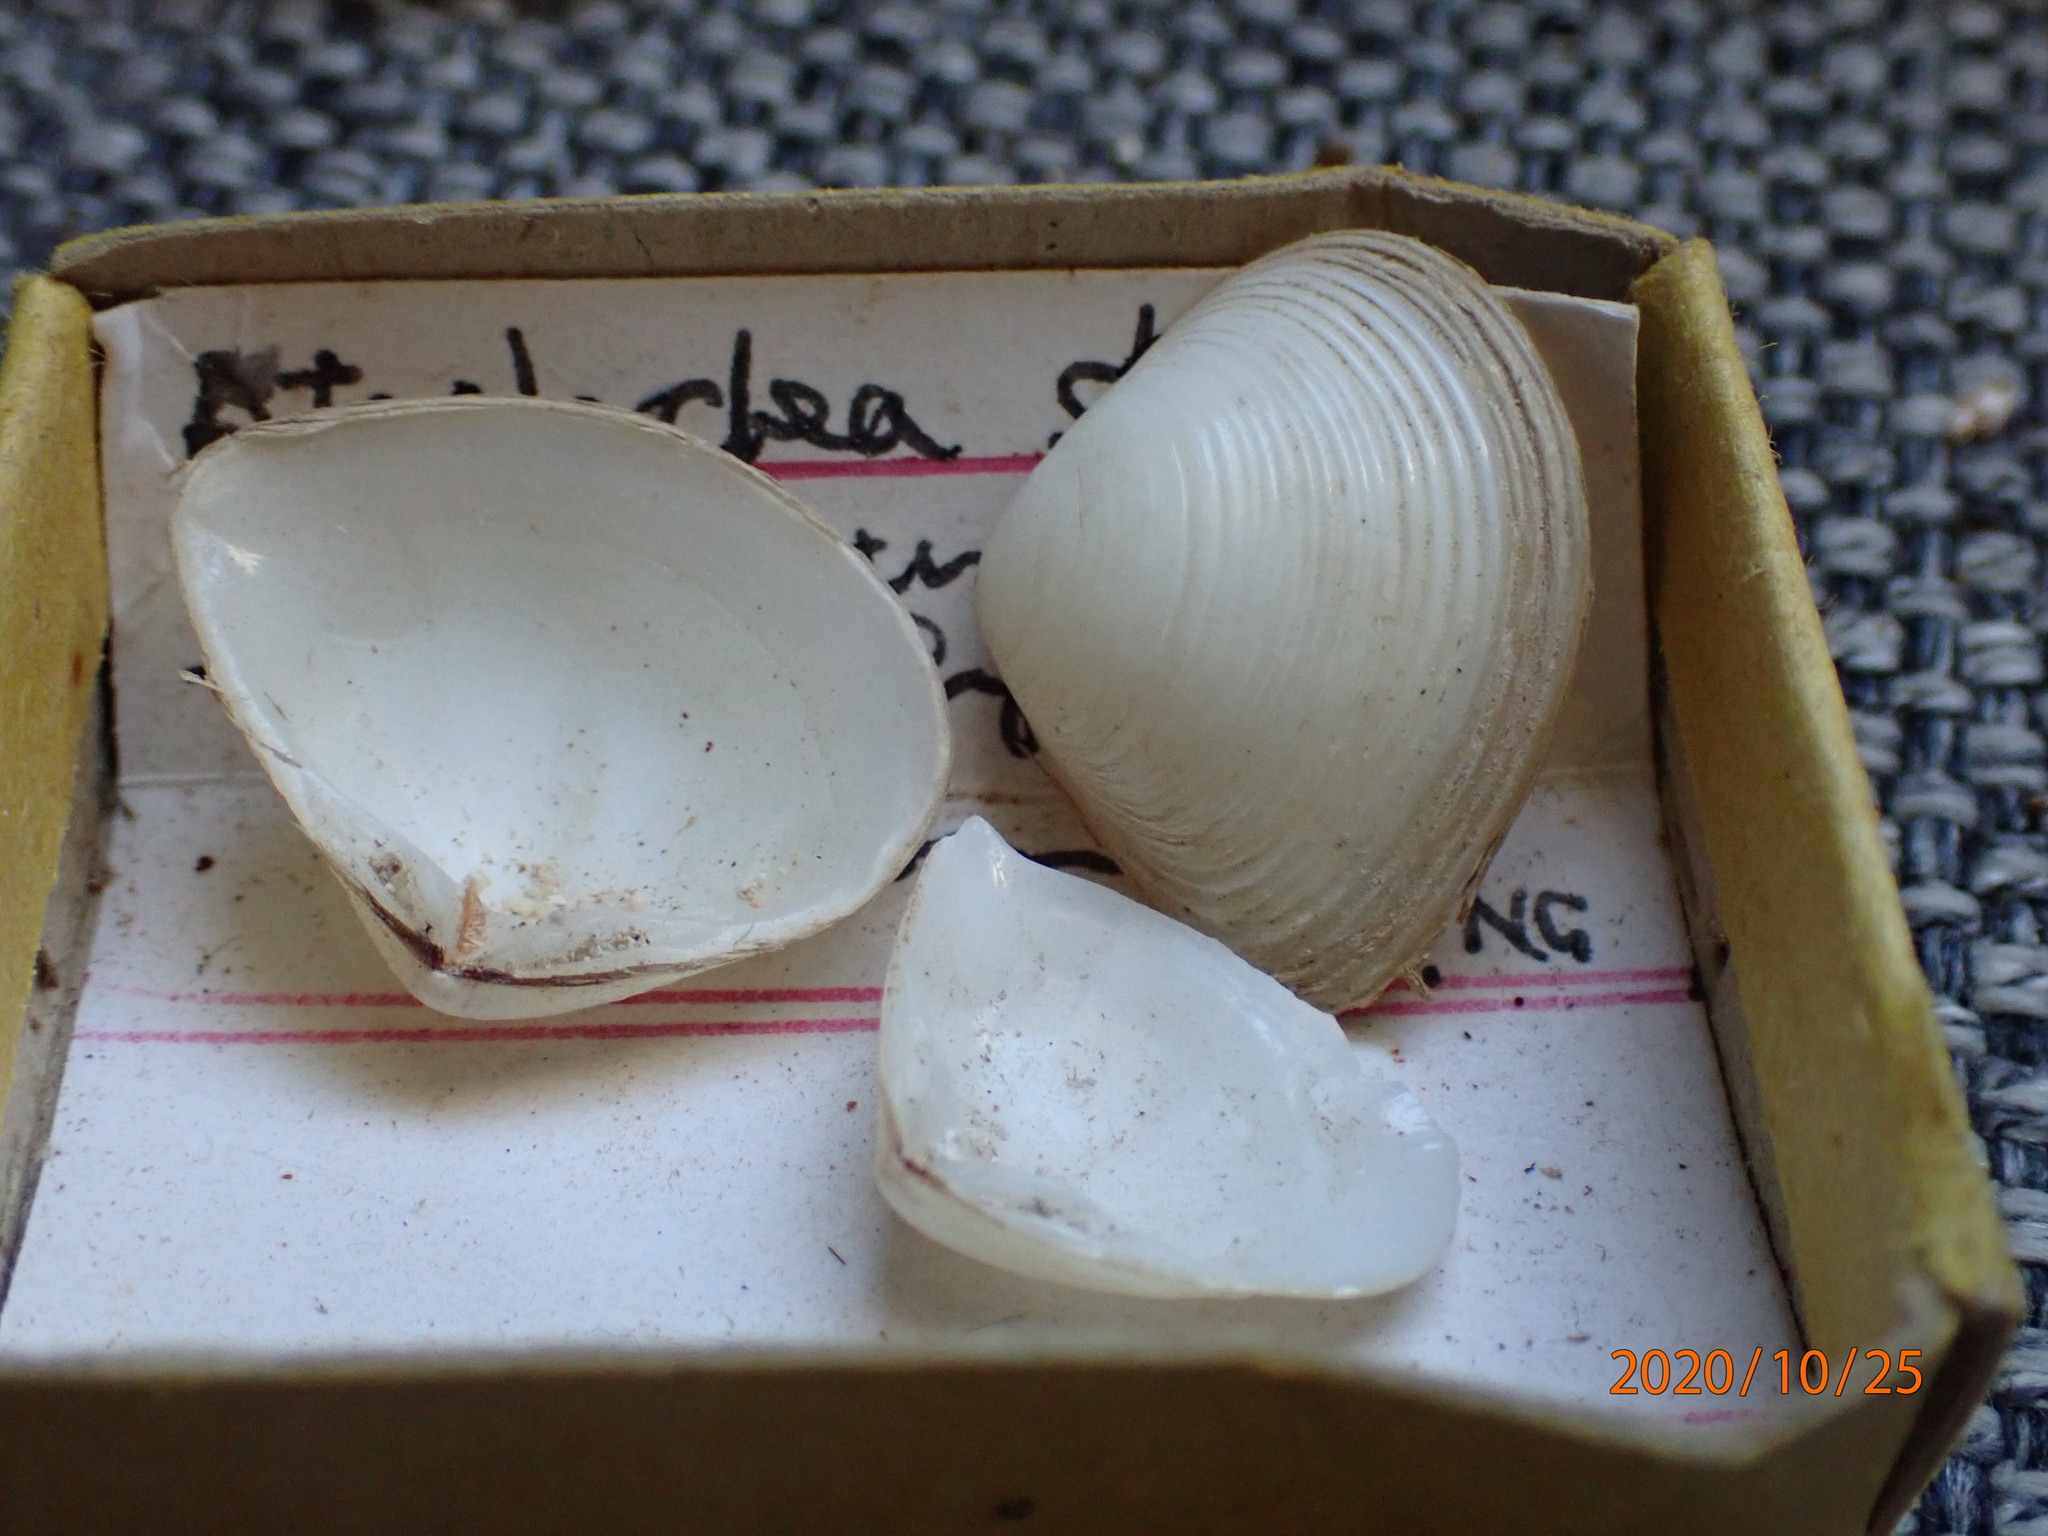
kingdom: Animalia
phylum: Mollusca
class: Bivalvia
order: Venerida
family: Mesodesmatidae
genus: Atactodea
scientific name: Atactodea striata
